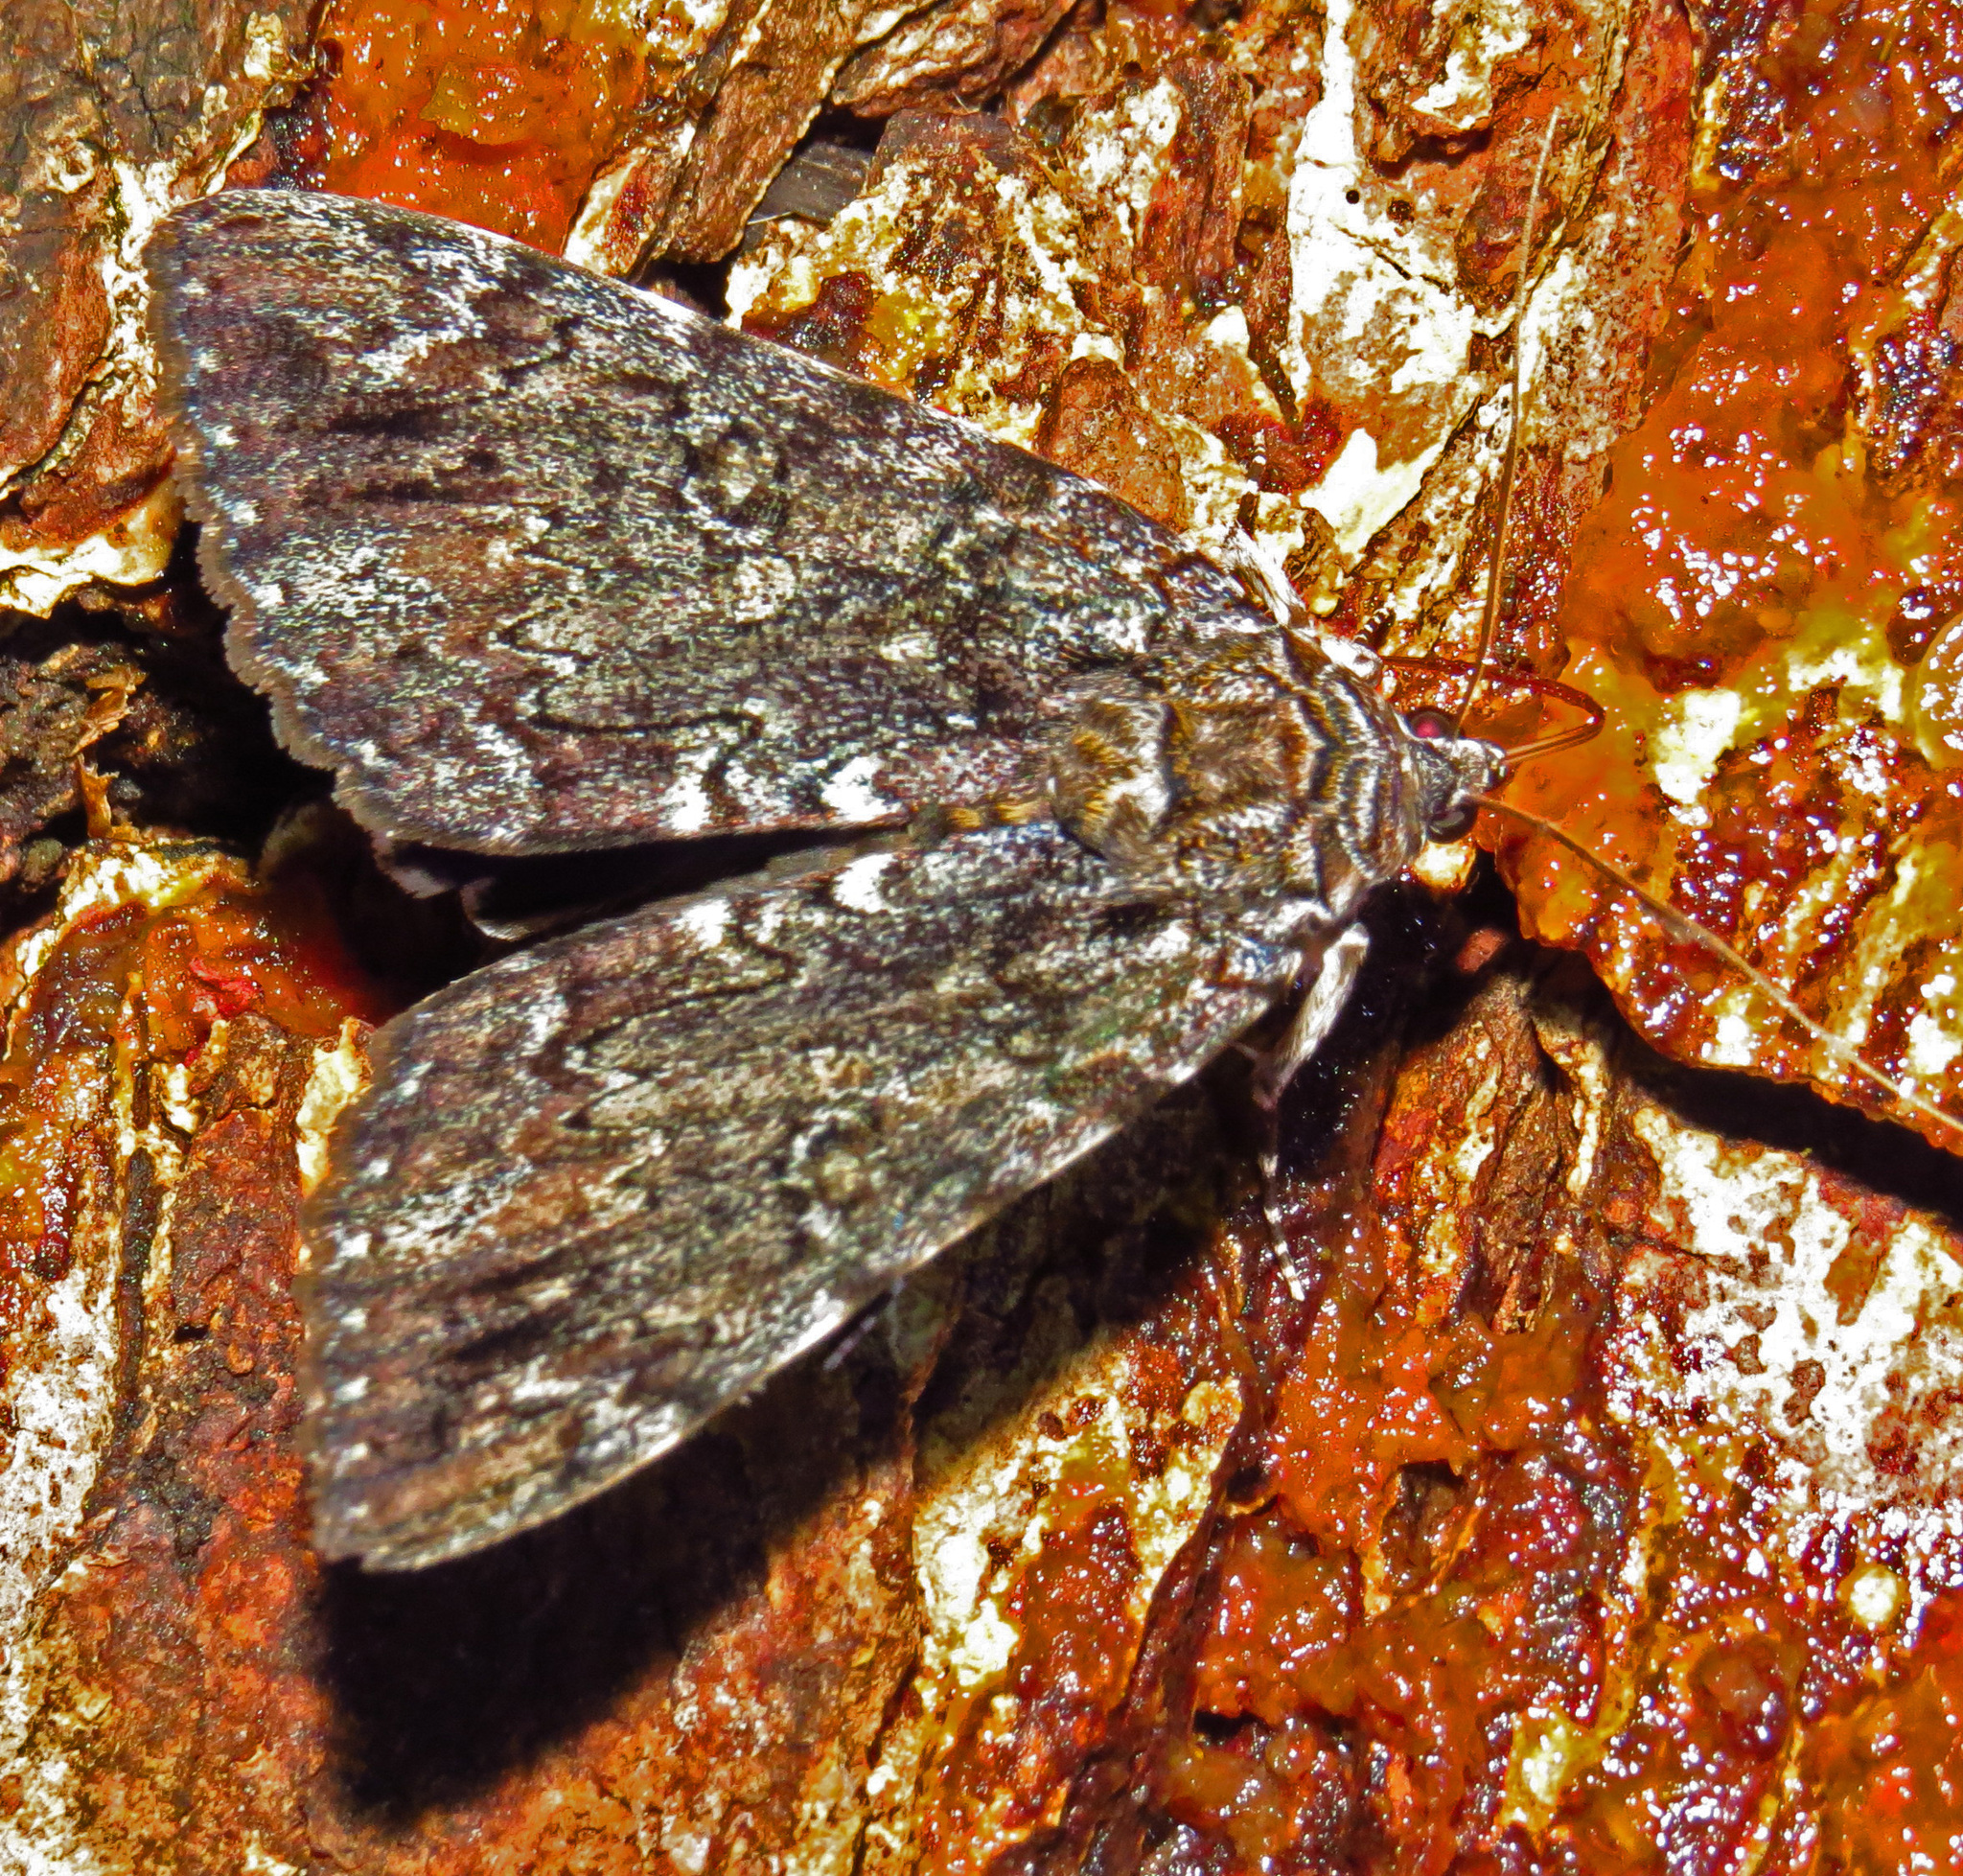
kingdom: Animalia
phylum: Arthropoda
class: Insecta
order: Lepidoptera
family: Erebidae
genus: Catocala
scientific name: Catocala lacrymosa
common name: Tearful underwing
